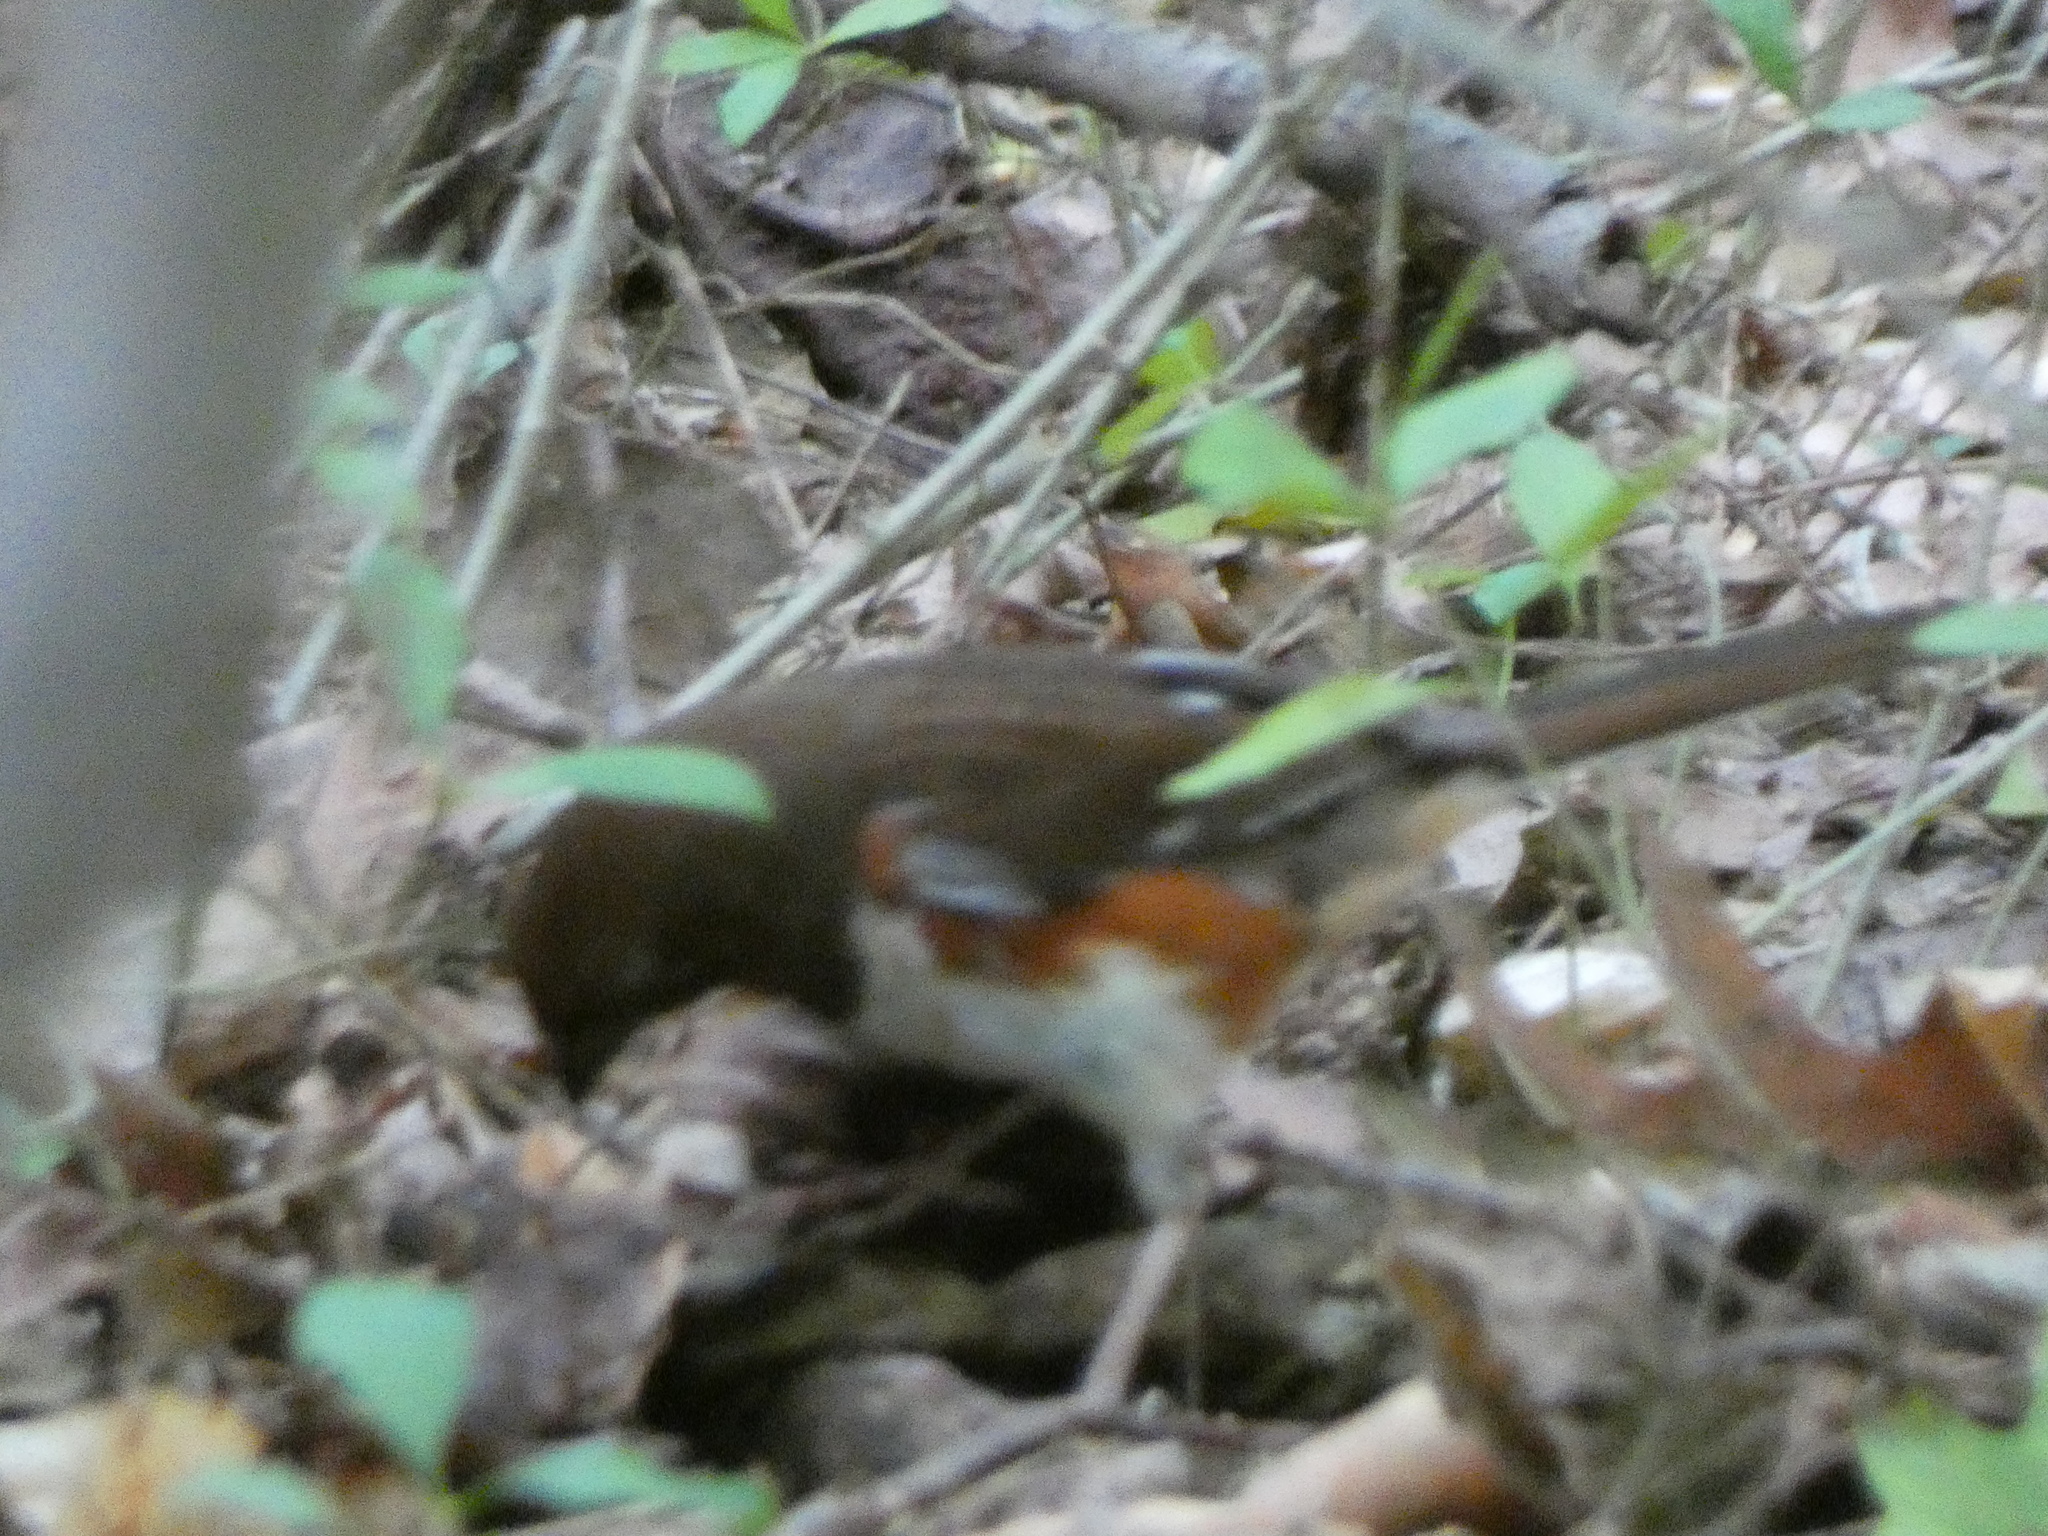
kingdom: Animalia
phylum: Chordata
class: Aves
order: Passeriformes
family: Passerellidae
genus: Pipilo
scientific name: Pipilo erythrophthalmus
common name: Eastern towhee
